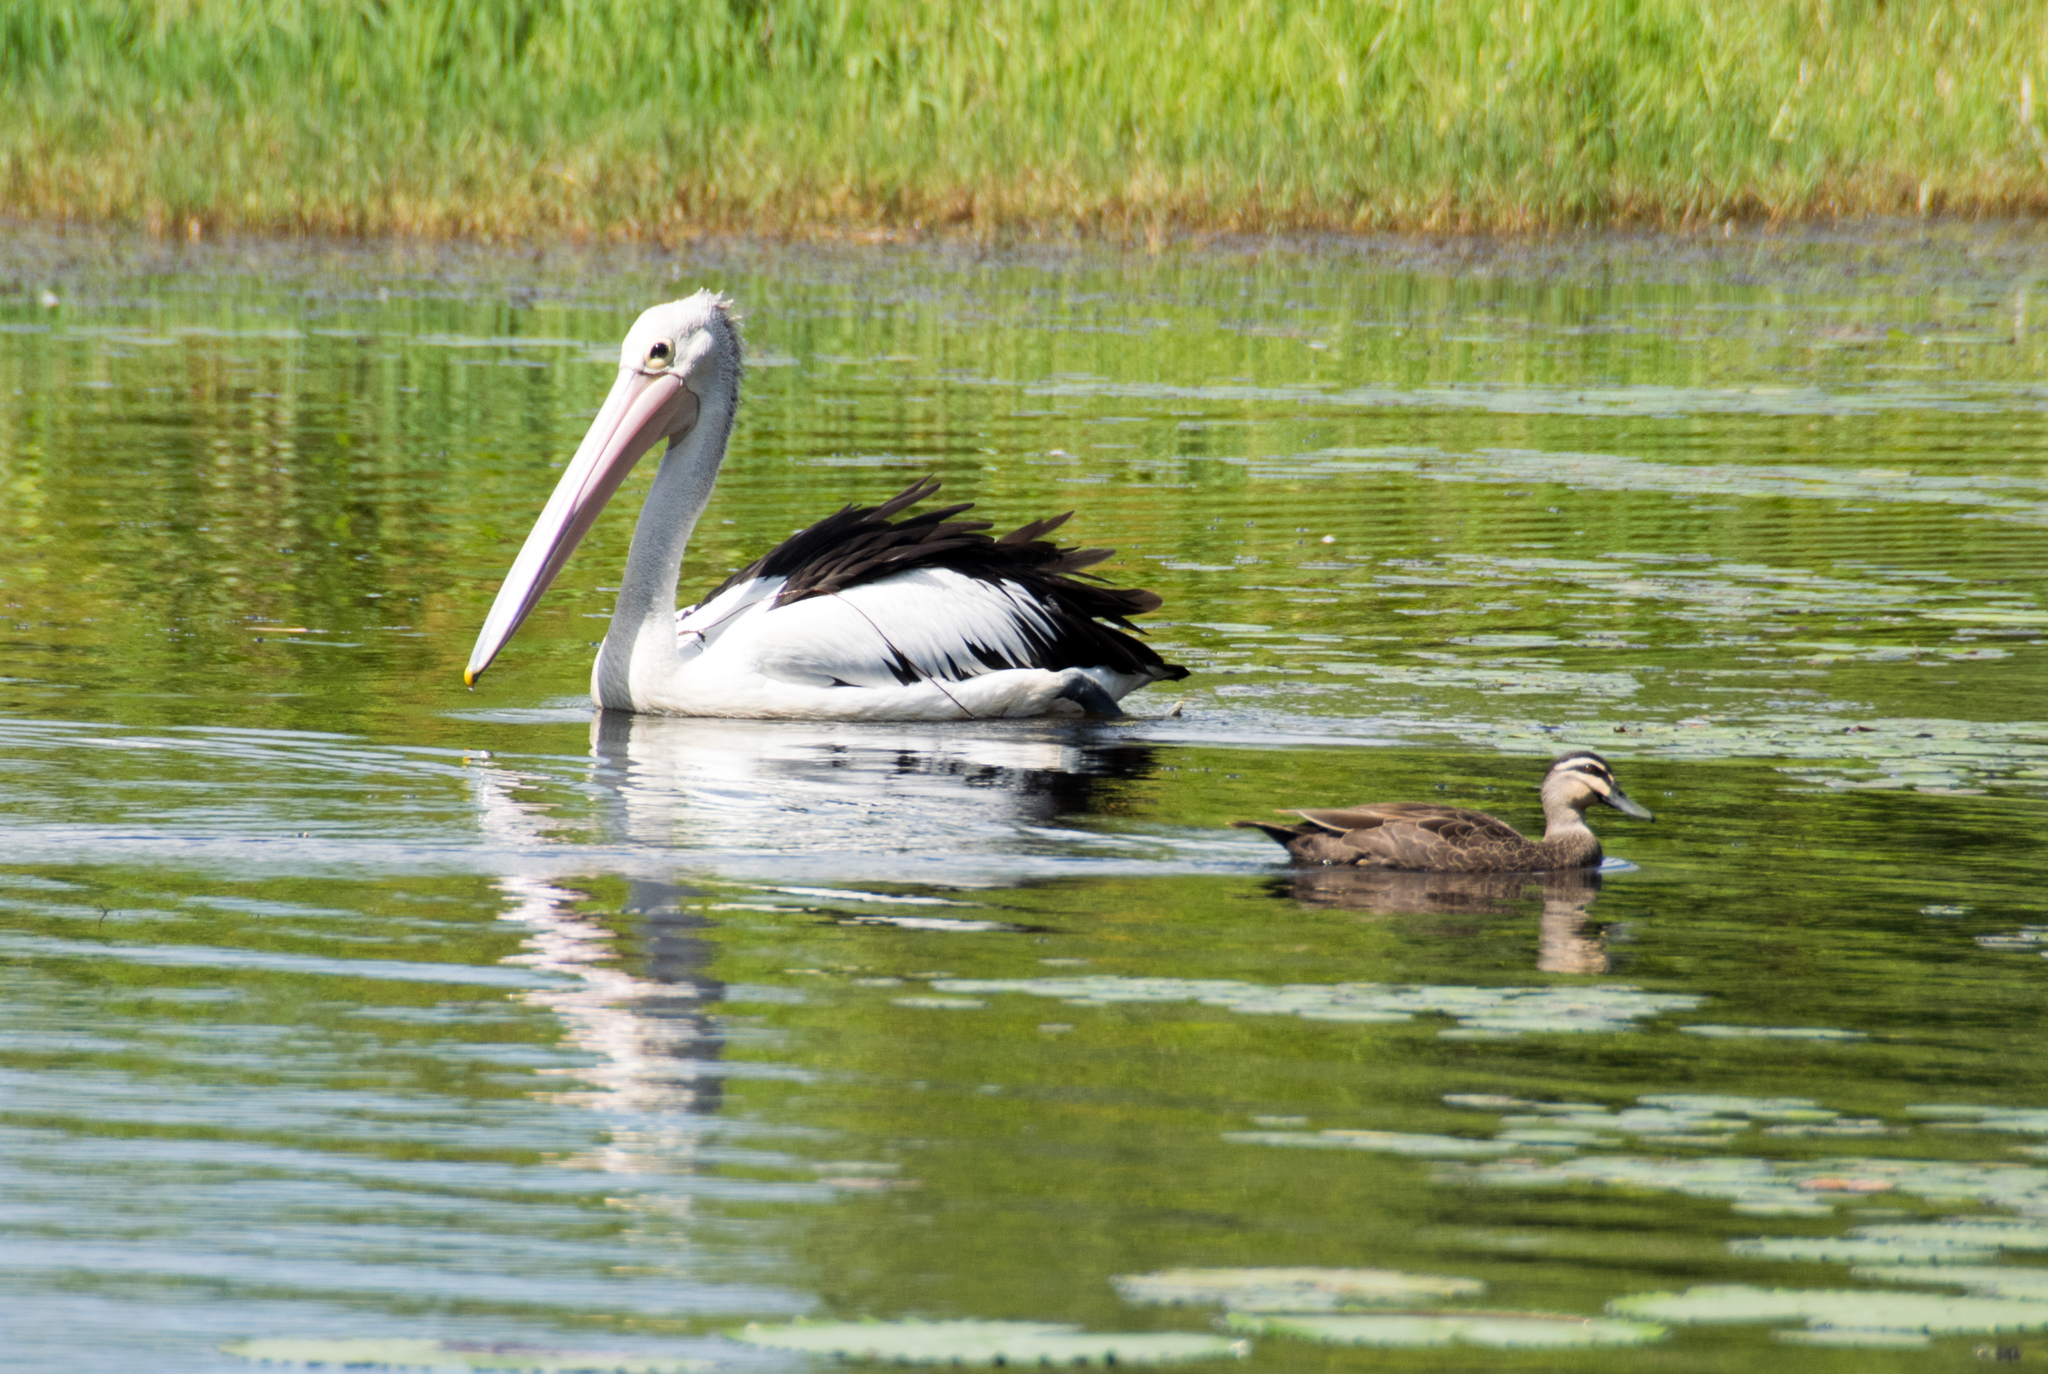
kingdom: Animalia
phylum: Chordata
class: Aves
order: Anseriformes
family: Anatidae
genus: Anas
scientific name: Anas superciliosa
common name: Pacific black duck
